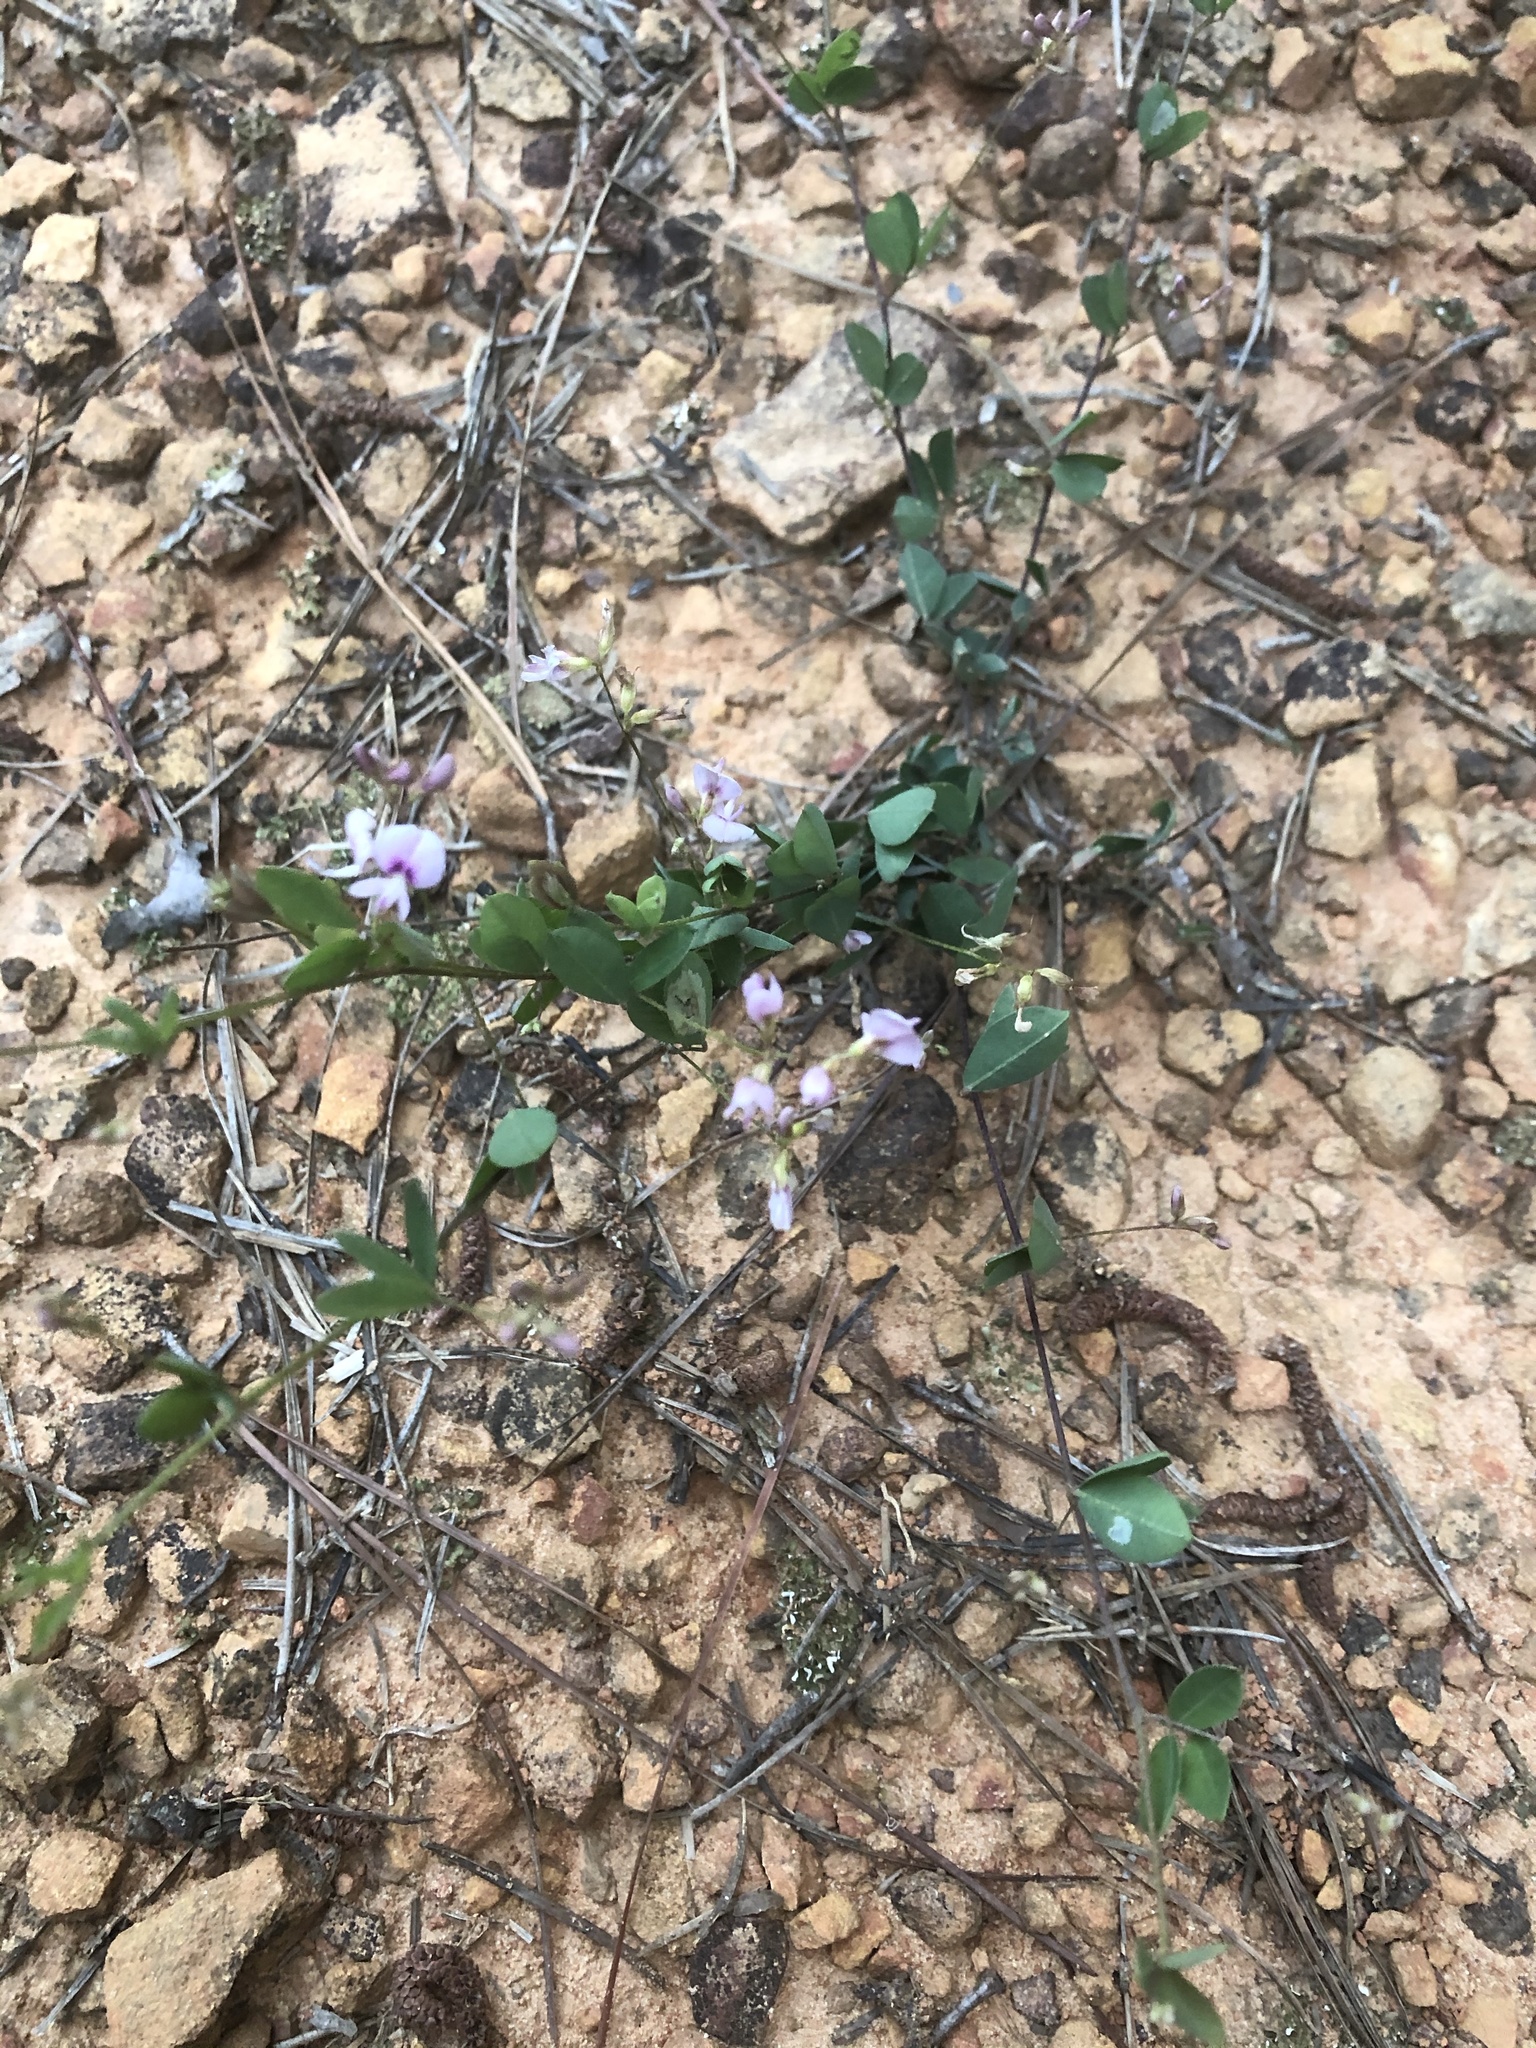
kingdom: Plantae
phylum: Tracheophyta
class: Magnoliopsida
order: Fabales
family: Fabaceae
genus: Lespedeza
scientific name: Lespedeza repens
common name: Creeping bush-clover
